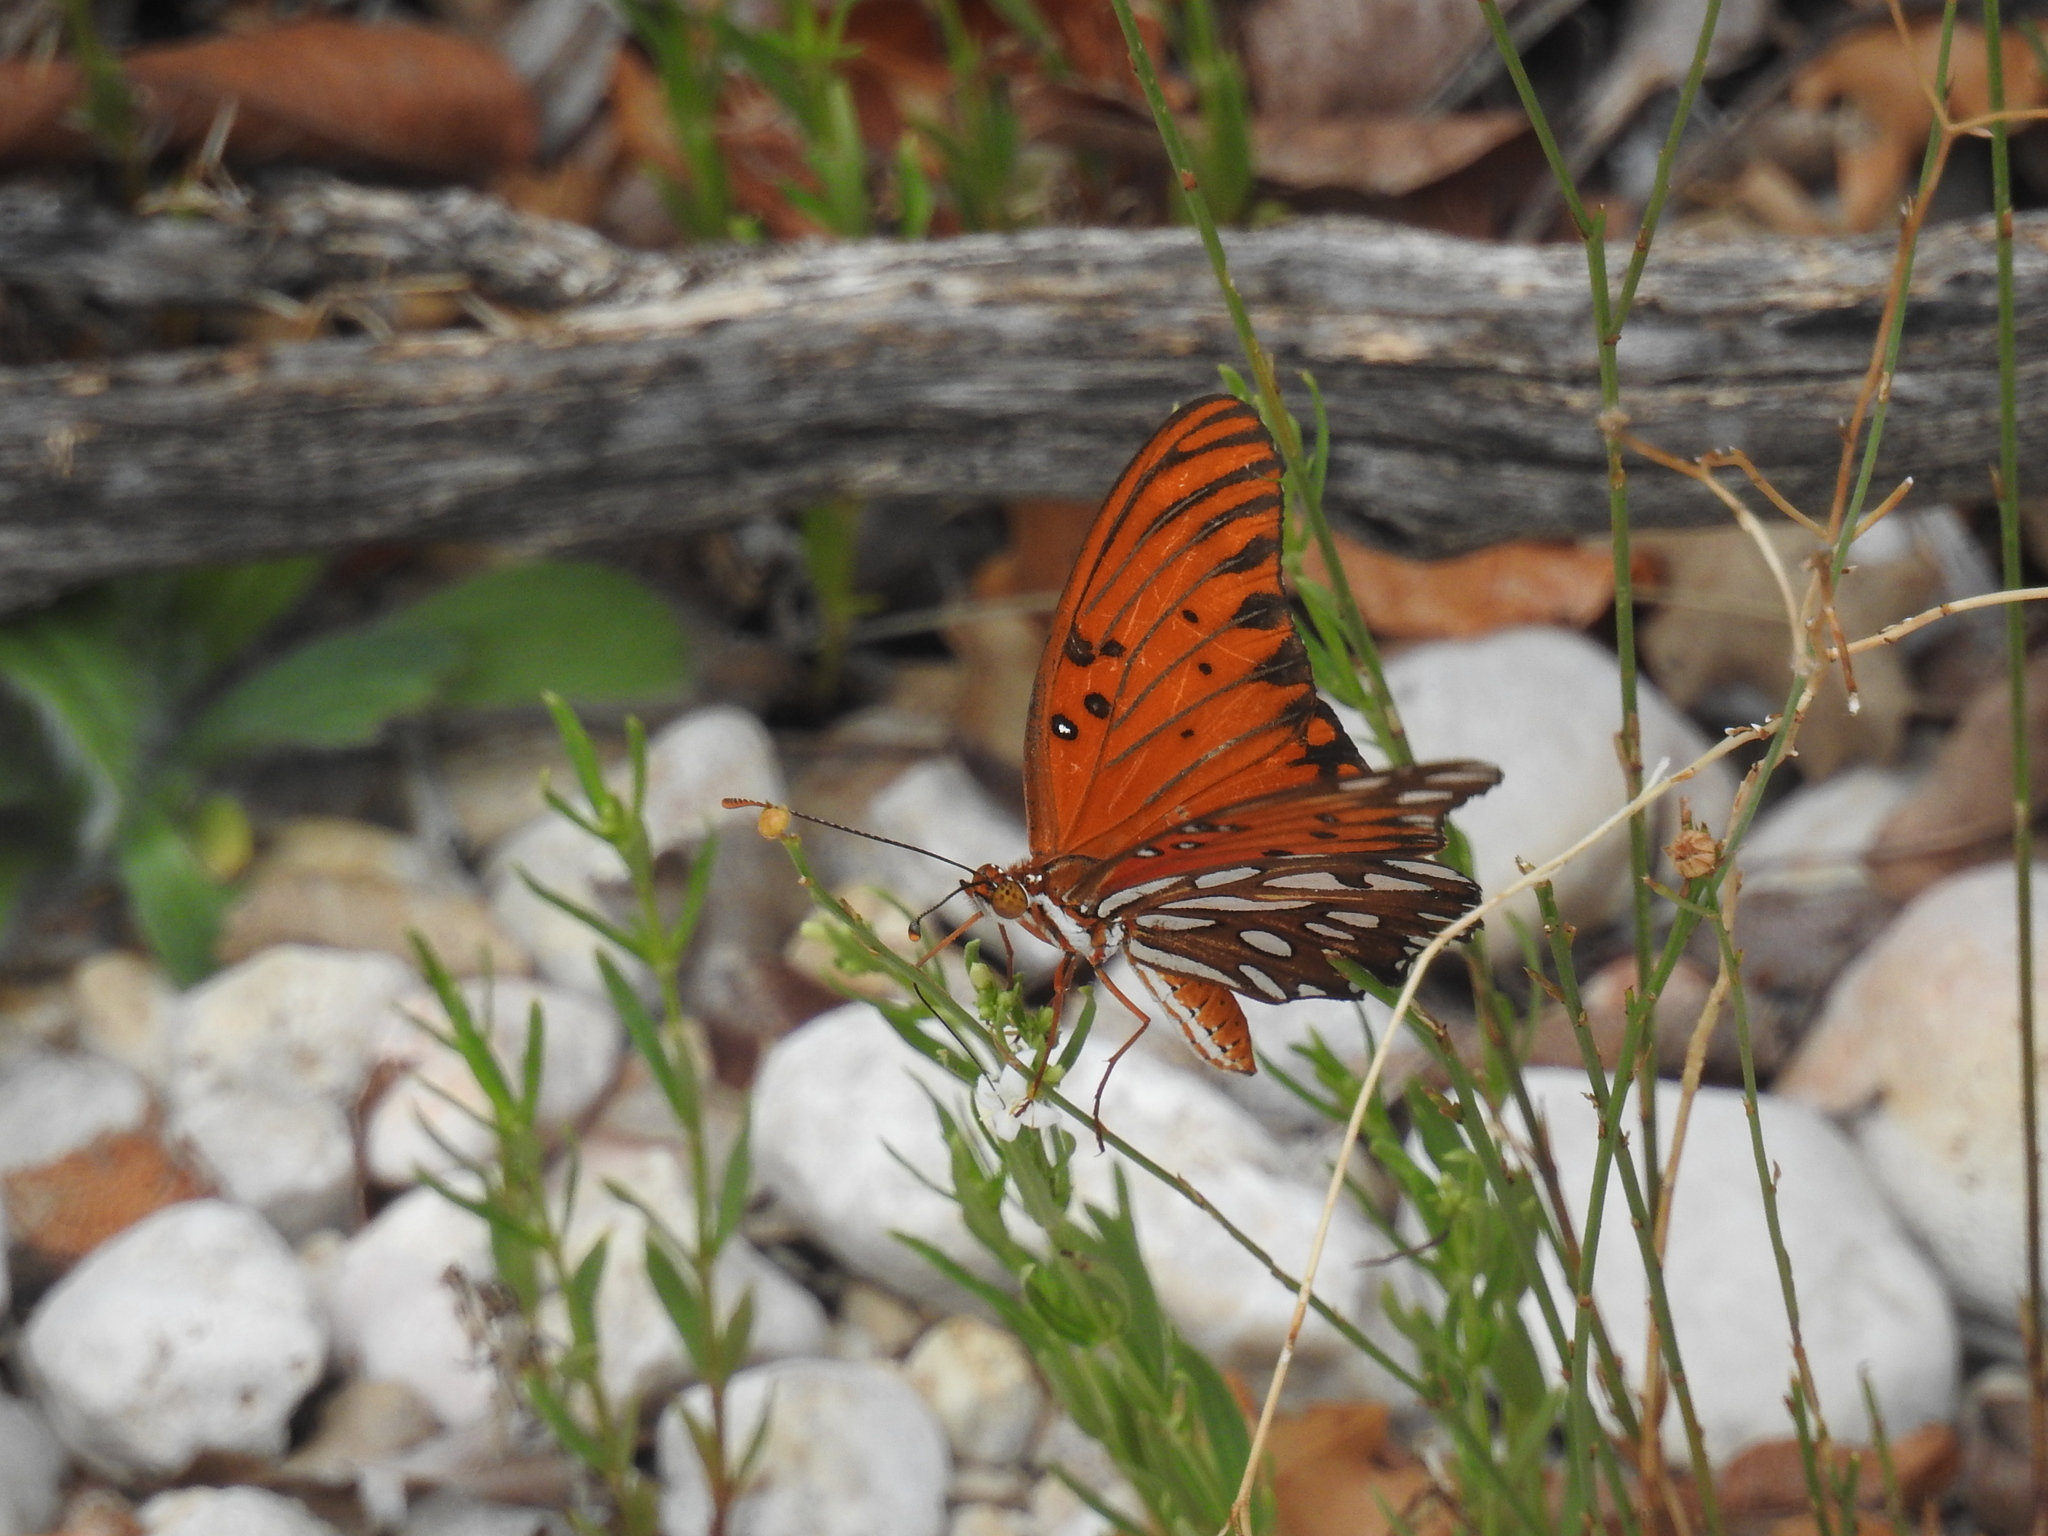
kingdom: Animalia
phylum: Arthropoda
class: Insecta
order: Lepidoptera
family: Nymphalidae
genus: Dione
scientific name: Dione vanillae
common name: Gulf fritillary
